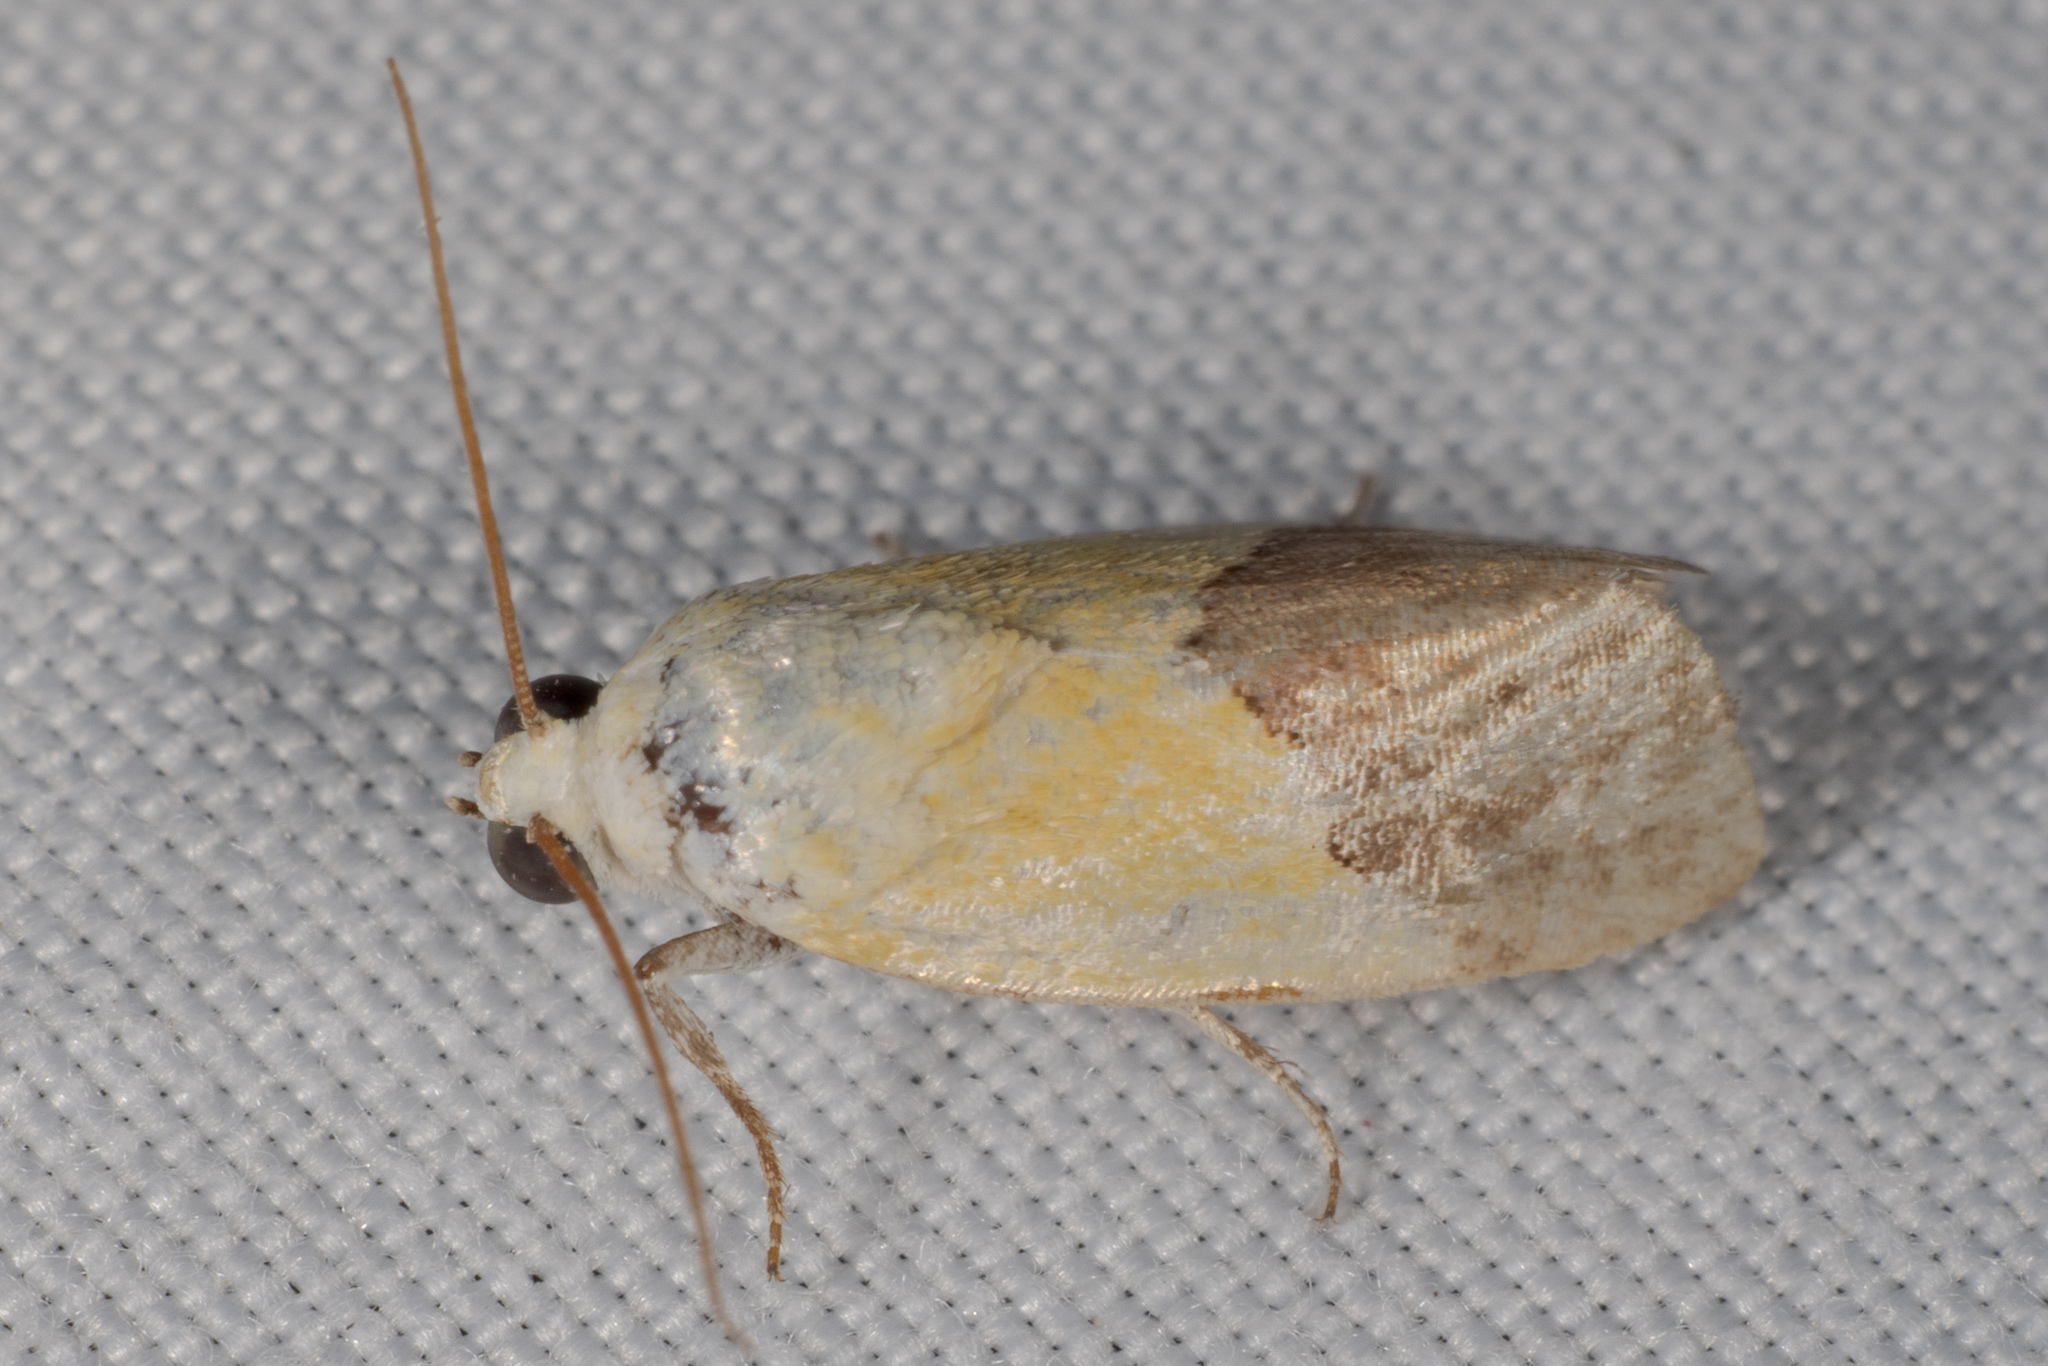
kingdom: Animalia
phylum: Arthropoda
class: Insecta
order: Lepidoptera
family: Noctuidae
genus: Acontia
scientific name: Acontia semiflava
